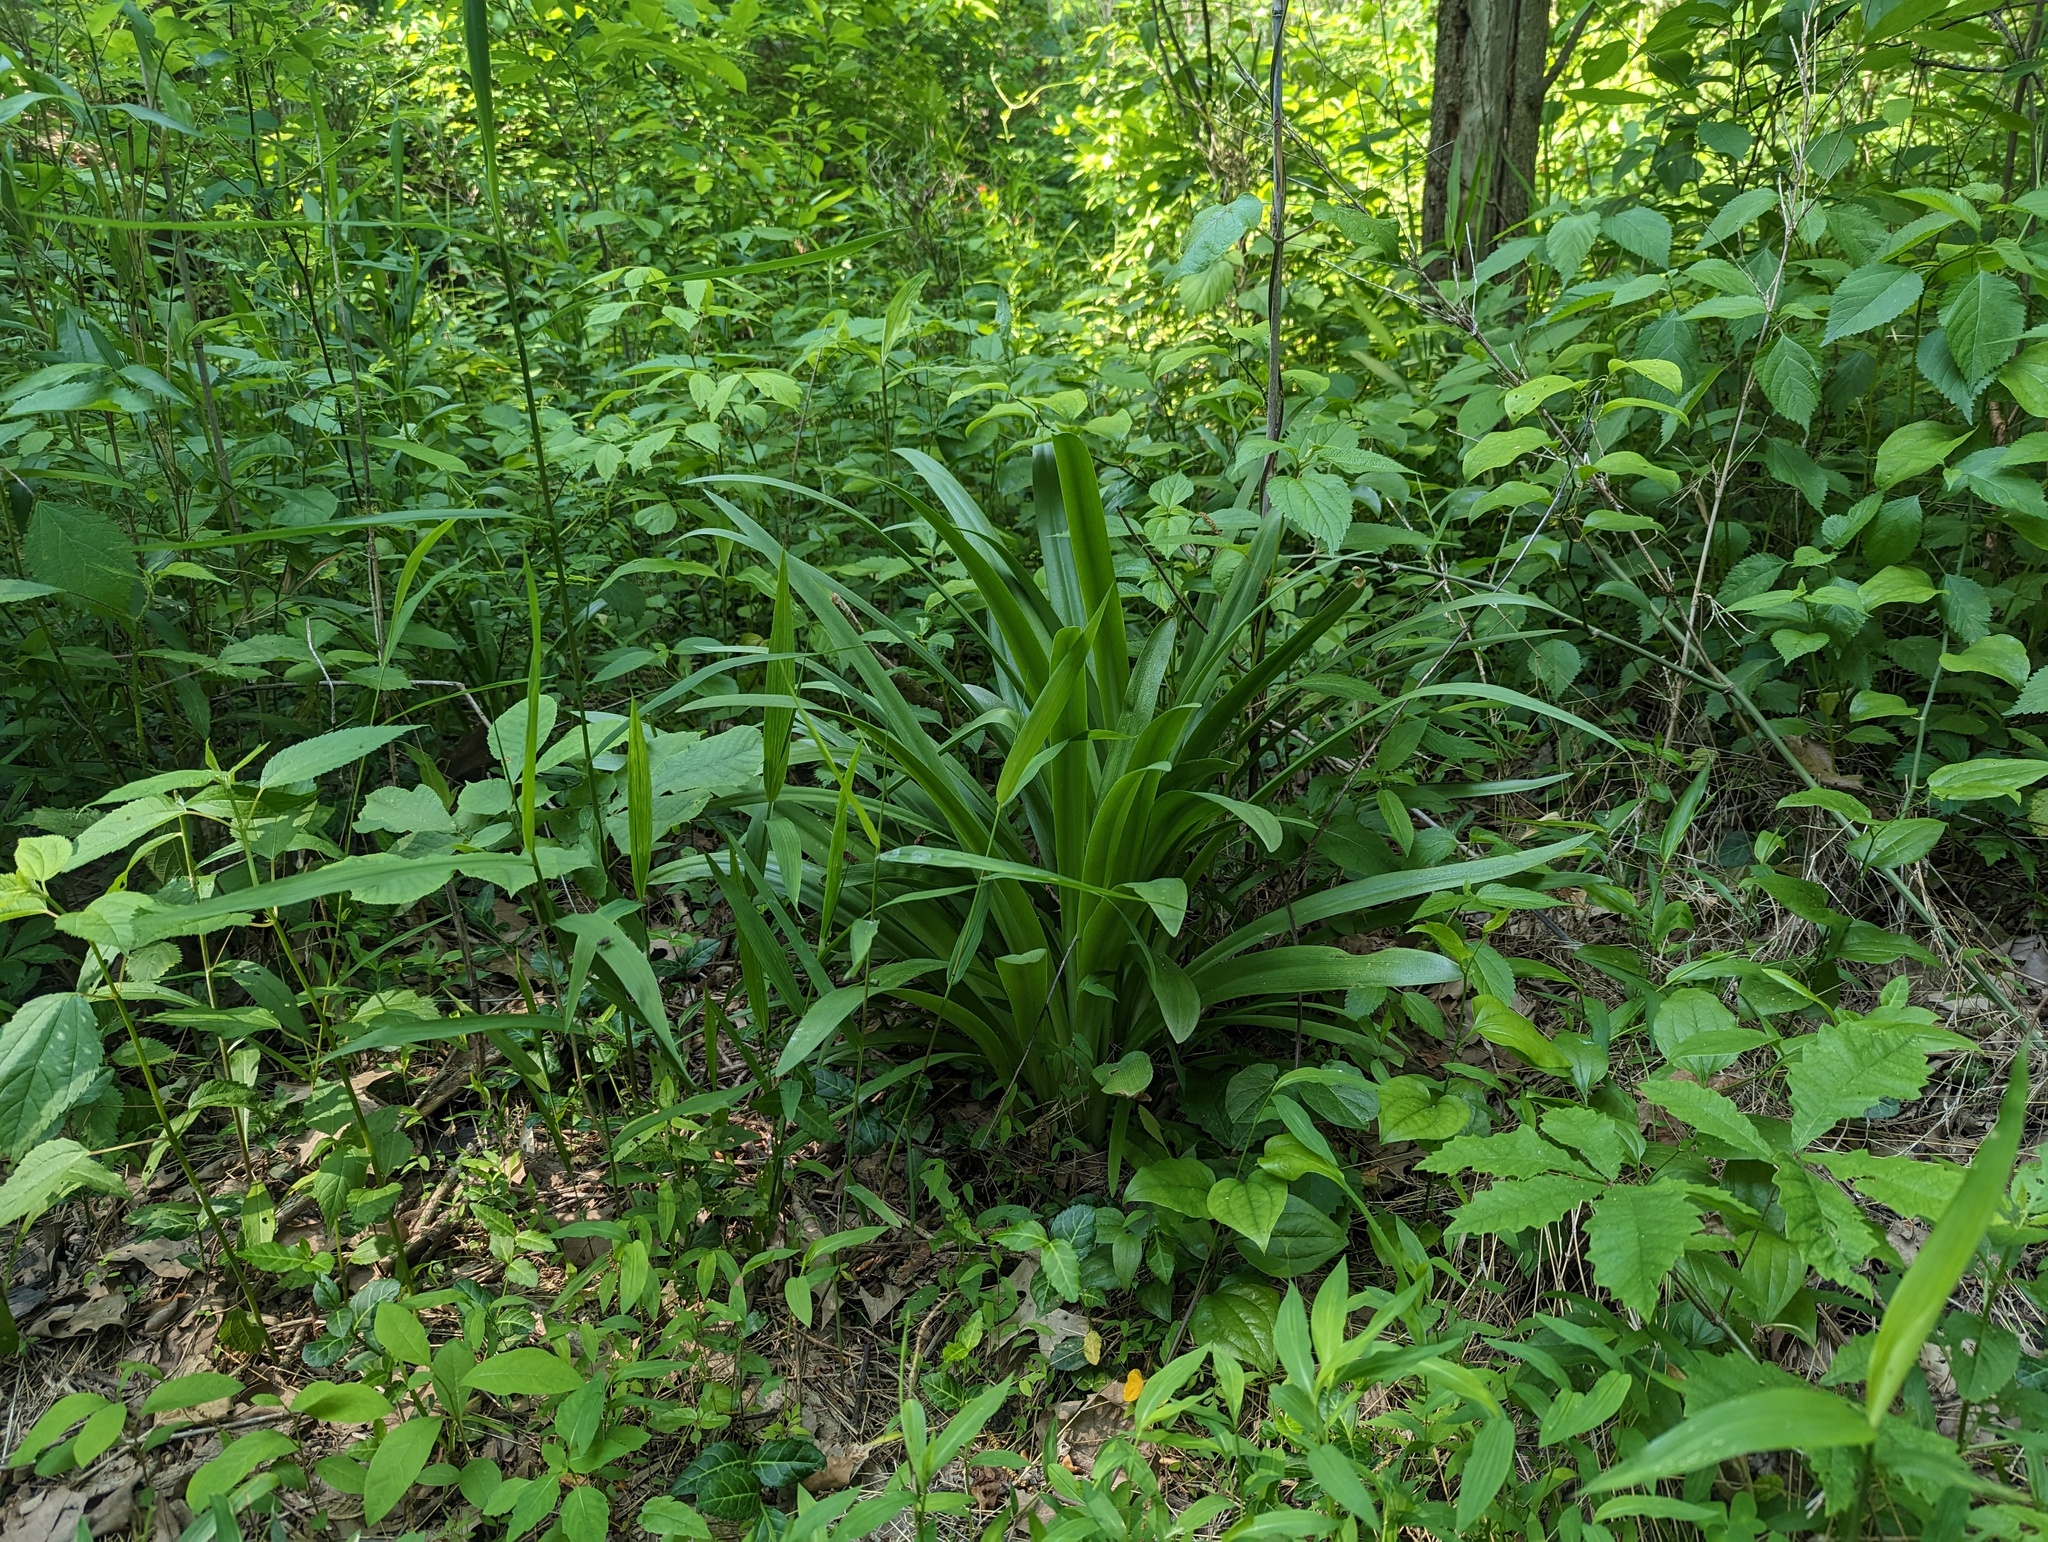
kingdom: Plantae
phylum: Tracheophyta
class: Liliopsida
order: Asparagales
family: Amaryllidaceae
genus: Hymenocallis
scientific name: Hymenocallis occidentalis
